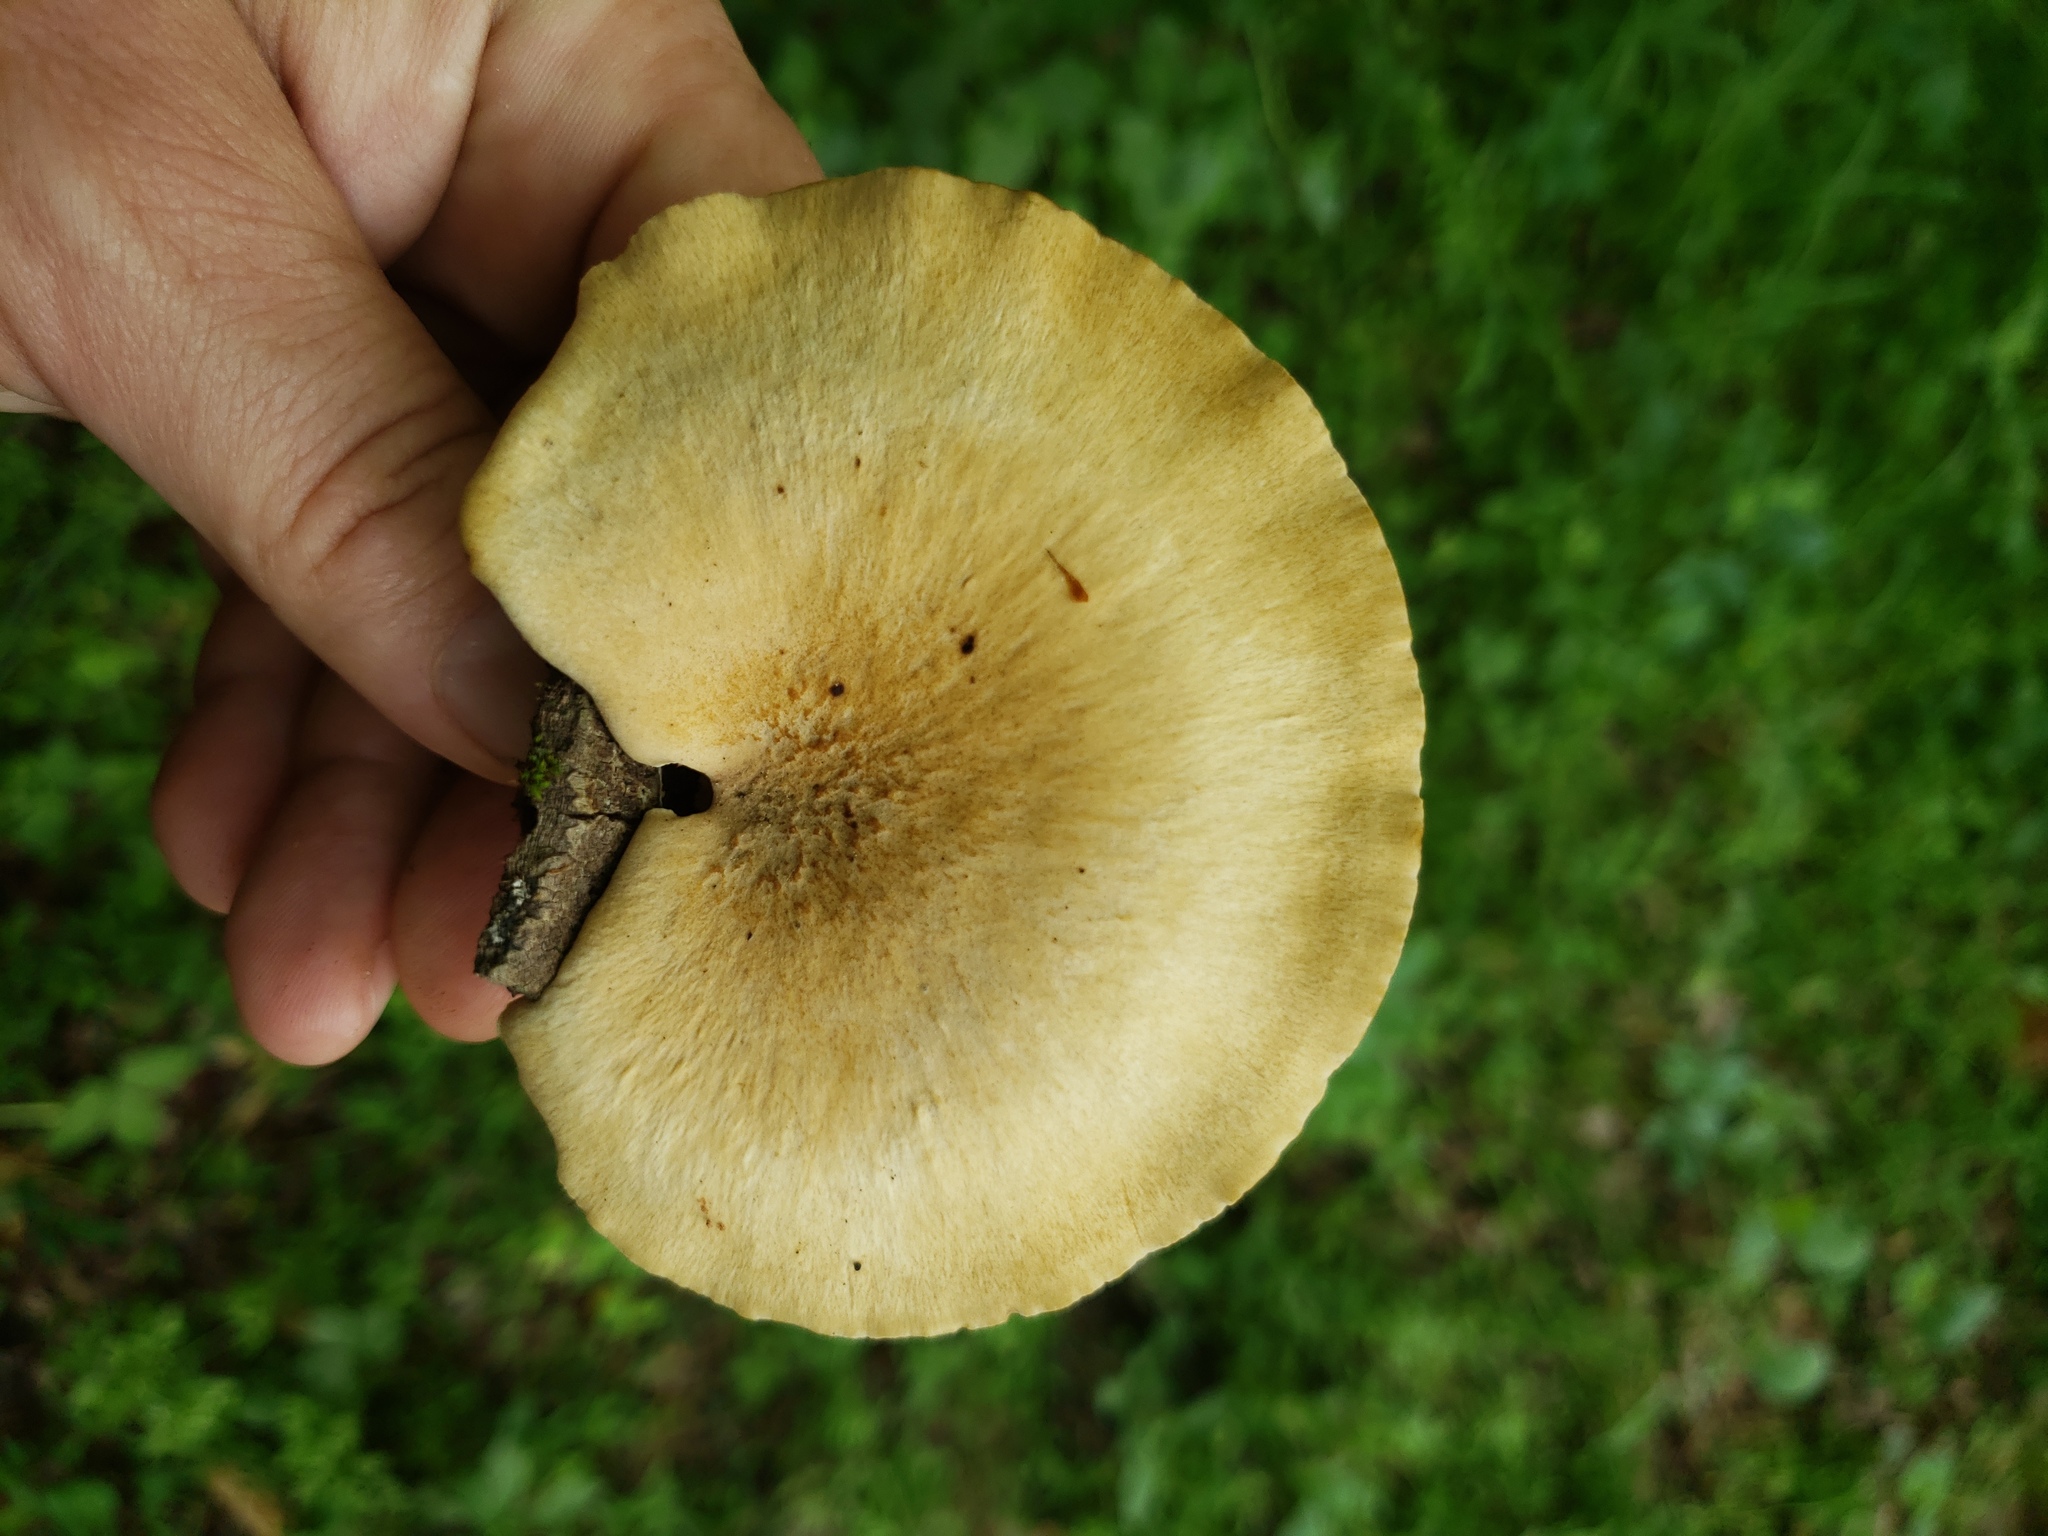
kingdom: Fungi
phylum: Basidiomycota
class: Agaricomycetes
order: Polyporales
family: Polyporaceae
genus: Cerioporus
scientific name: Cerioporus varius
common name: Elegant polypore
